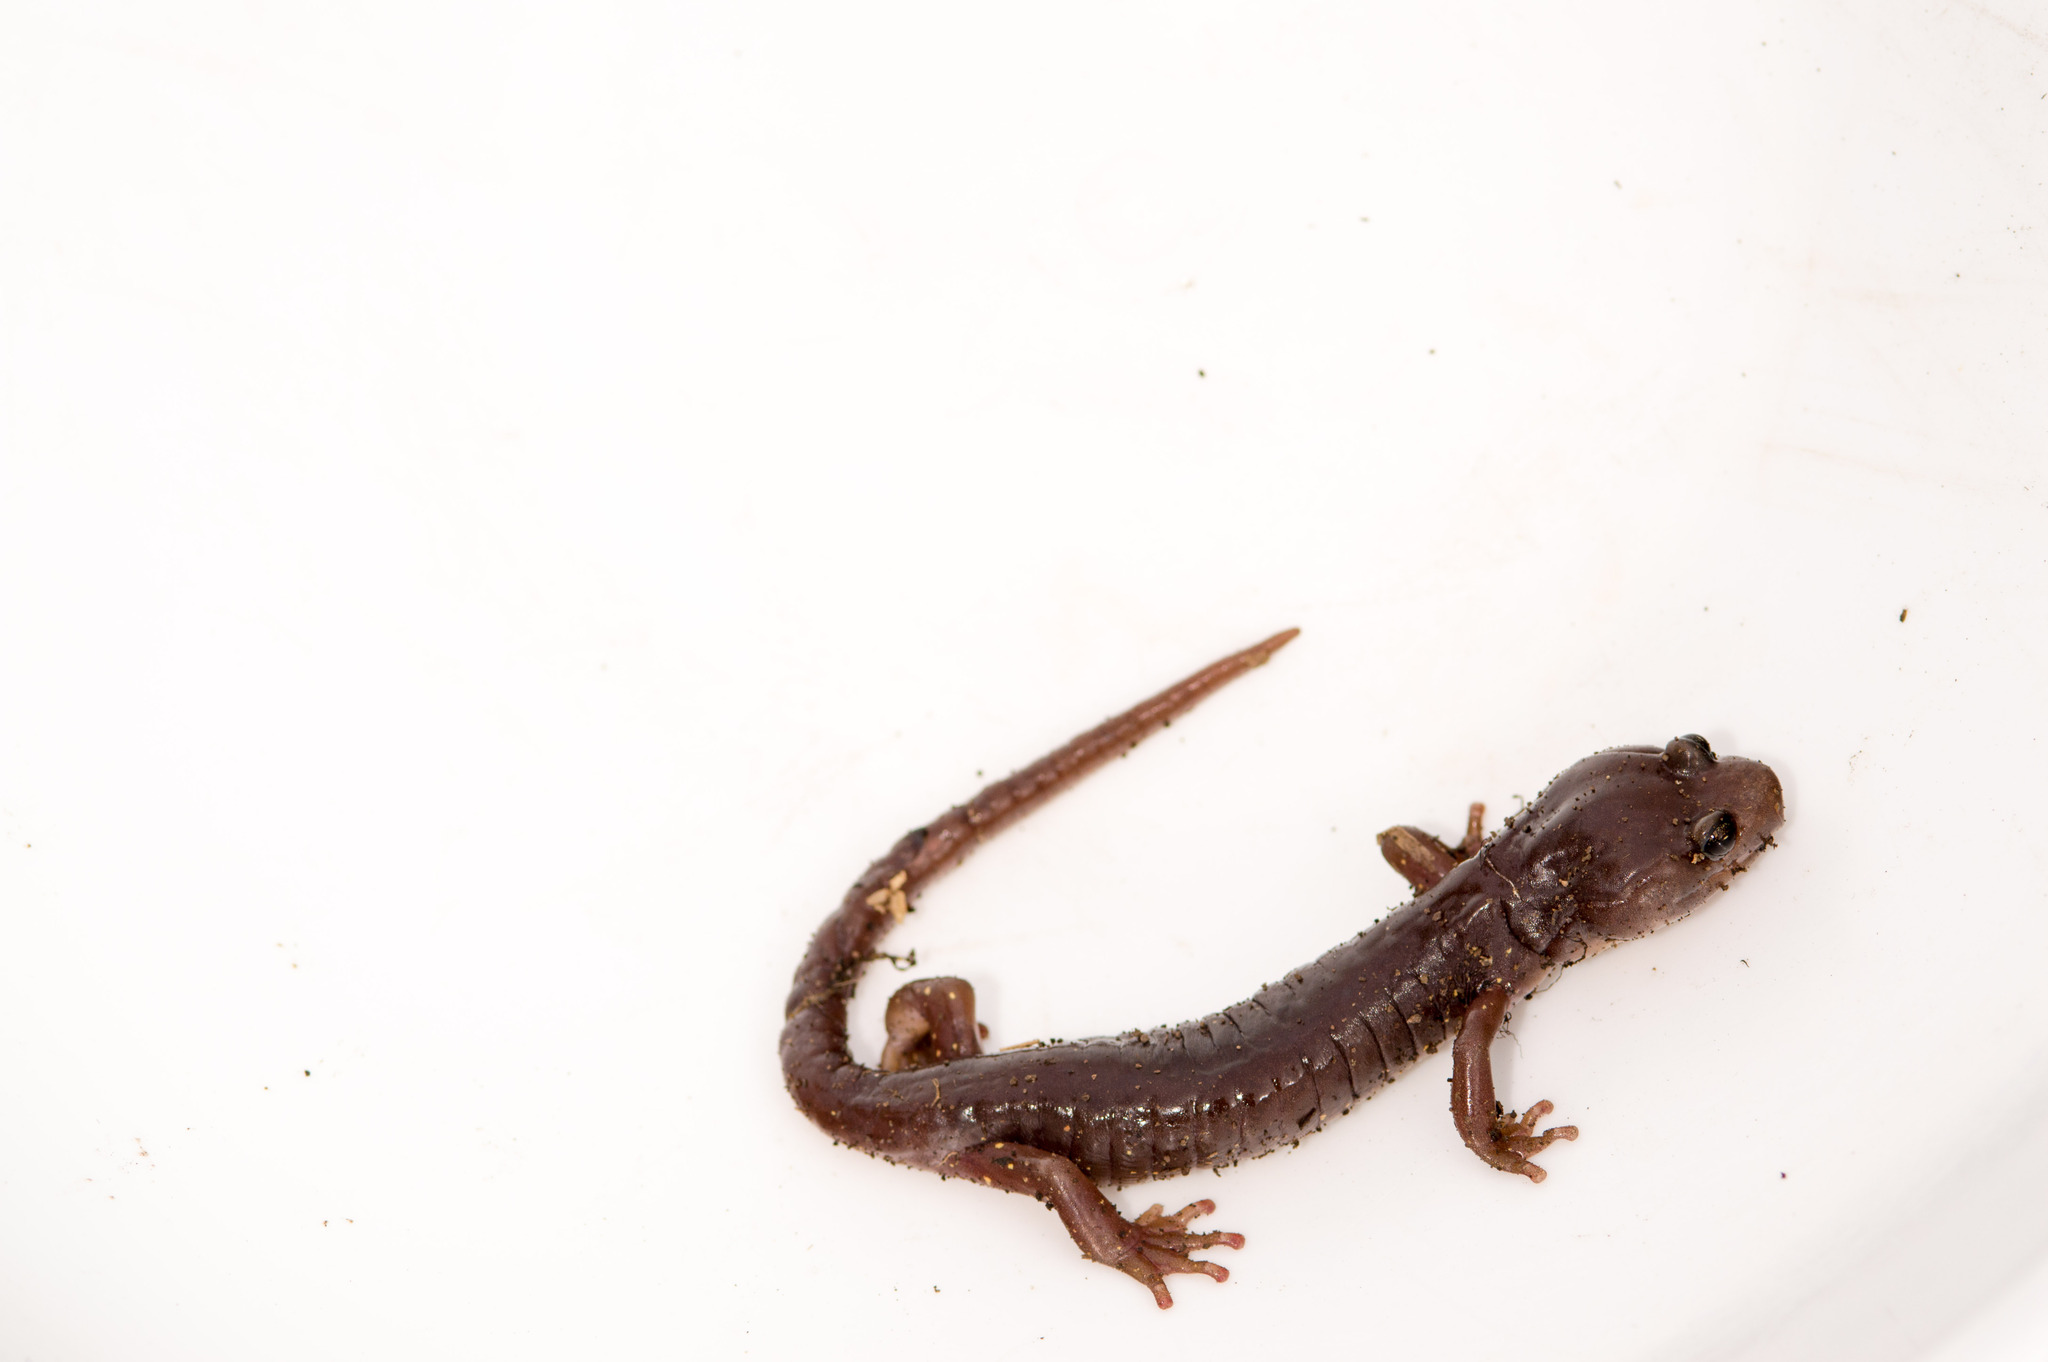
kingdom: Animalia
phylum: Chordata
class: Amphibia
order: Caudata
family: Plethodontidae
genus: Aneides
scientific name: Aneides lugubris
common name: Arboreal salamander
